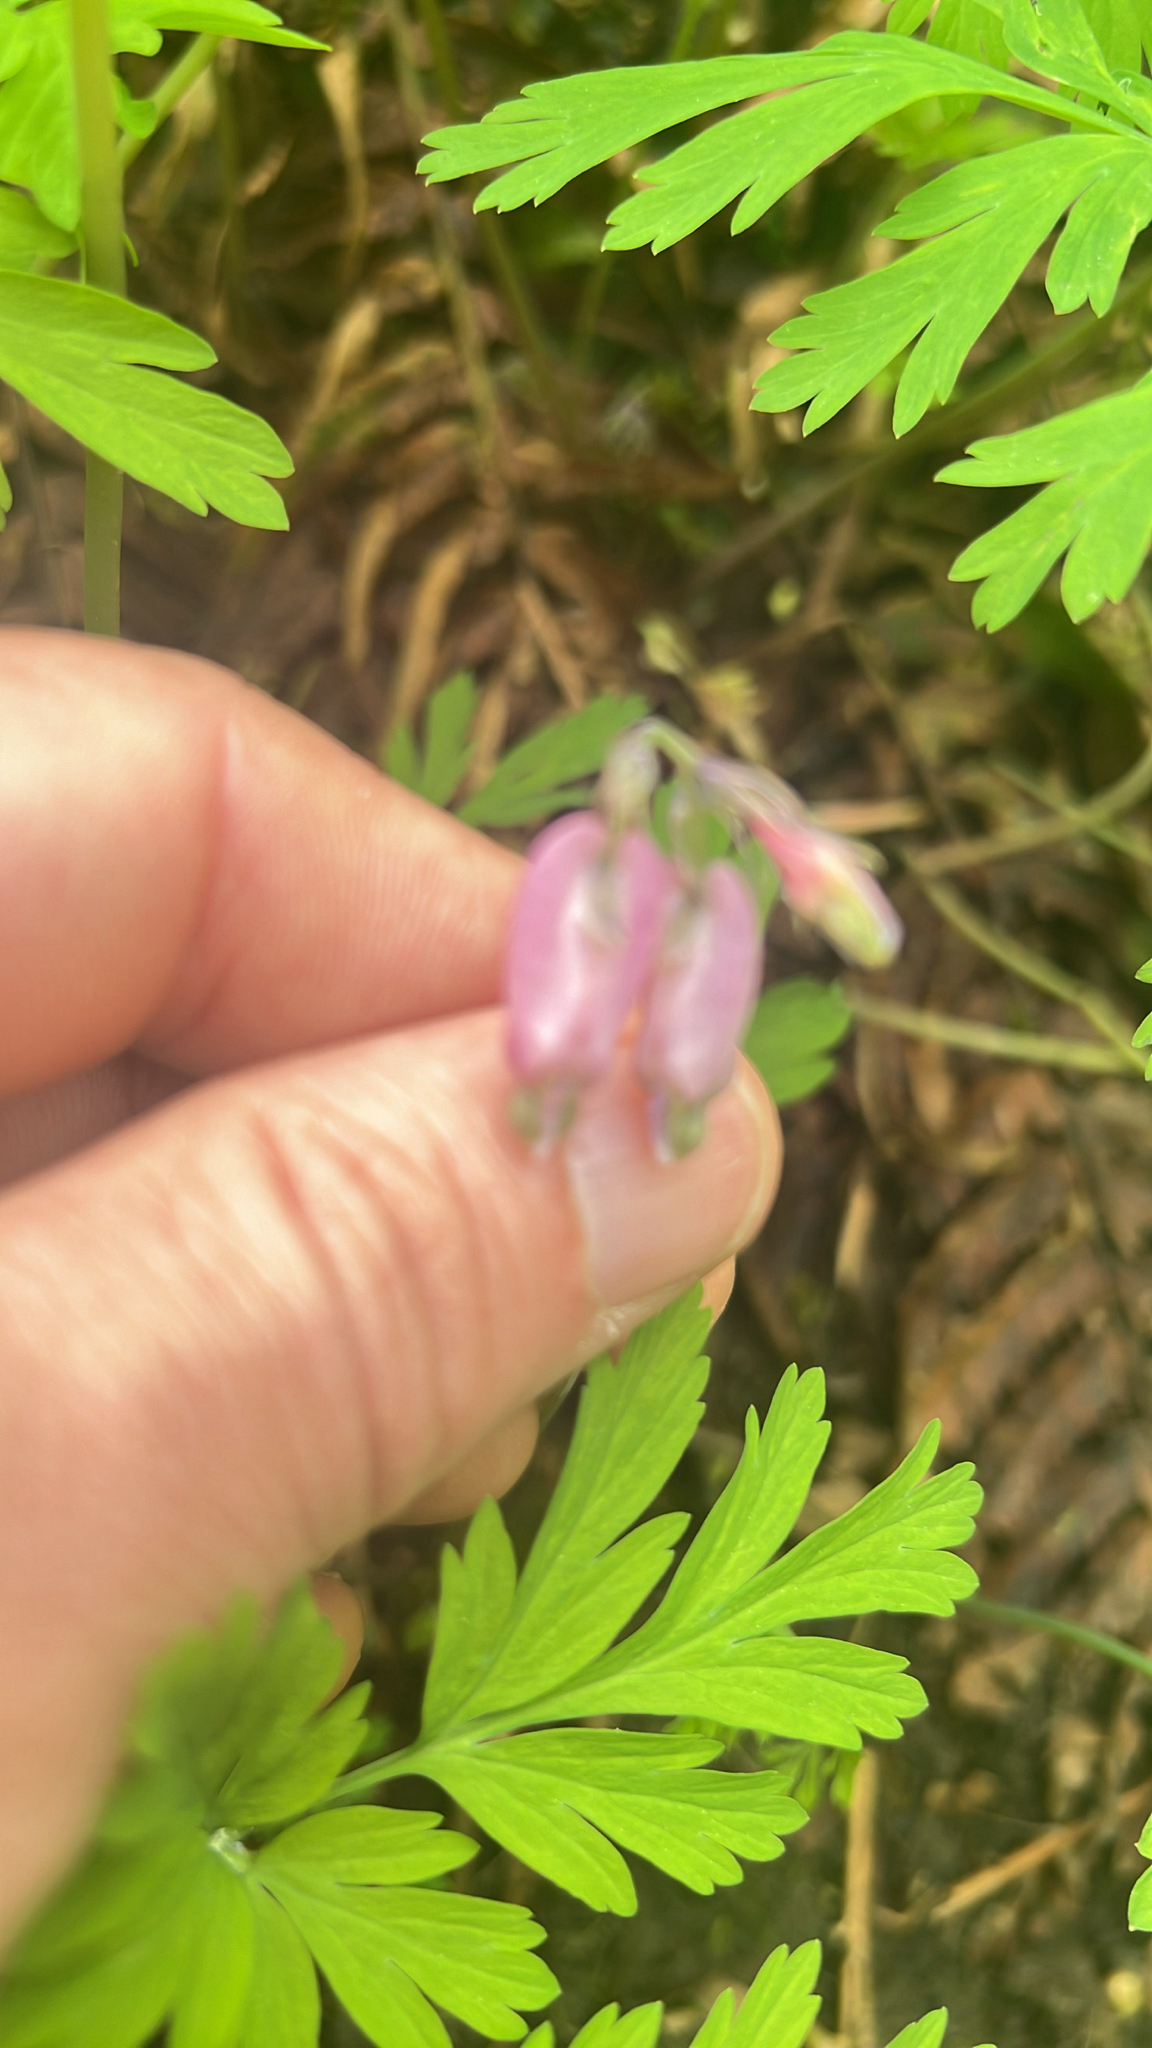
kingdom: Plantae
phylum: Tracheophyta
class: Magnoliopsida
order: Ranunculales
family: Papaveraceae
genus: Dicentra
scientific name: Dicentra formosa
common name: Bleeding-heart
